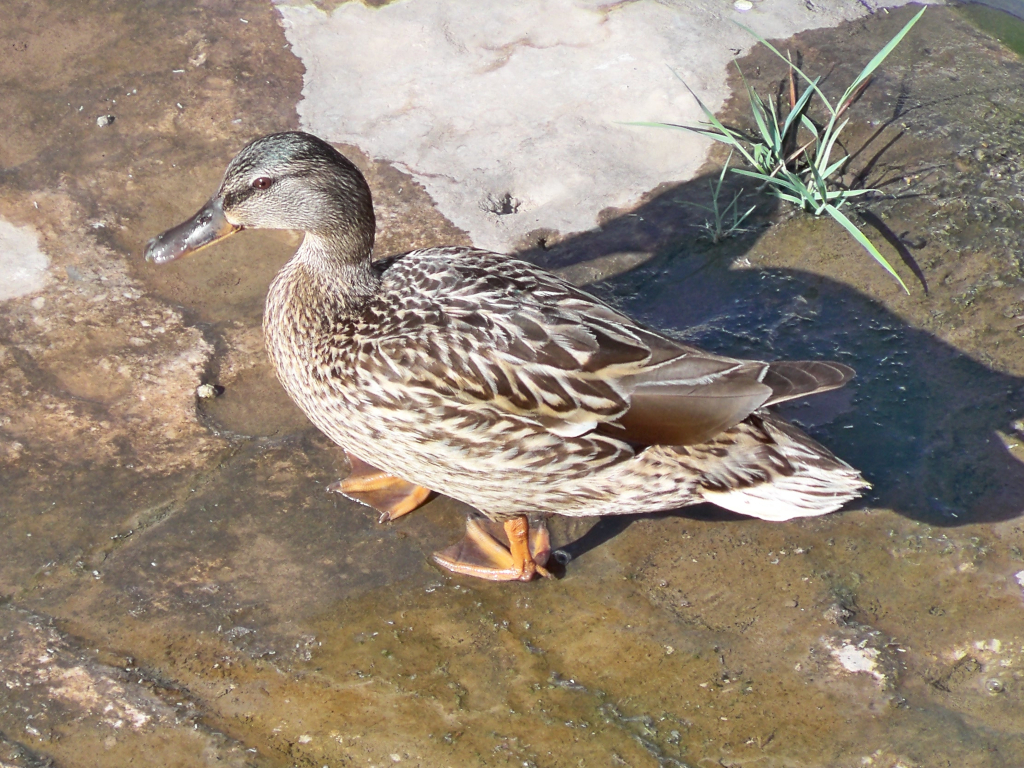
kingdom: Animalia
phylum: Chordata
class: Aves
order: Anseriformes
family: Anatidae
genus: Anas
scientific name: Anas platyrhynchos
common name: Mallard
